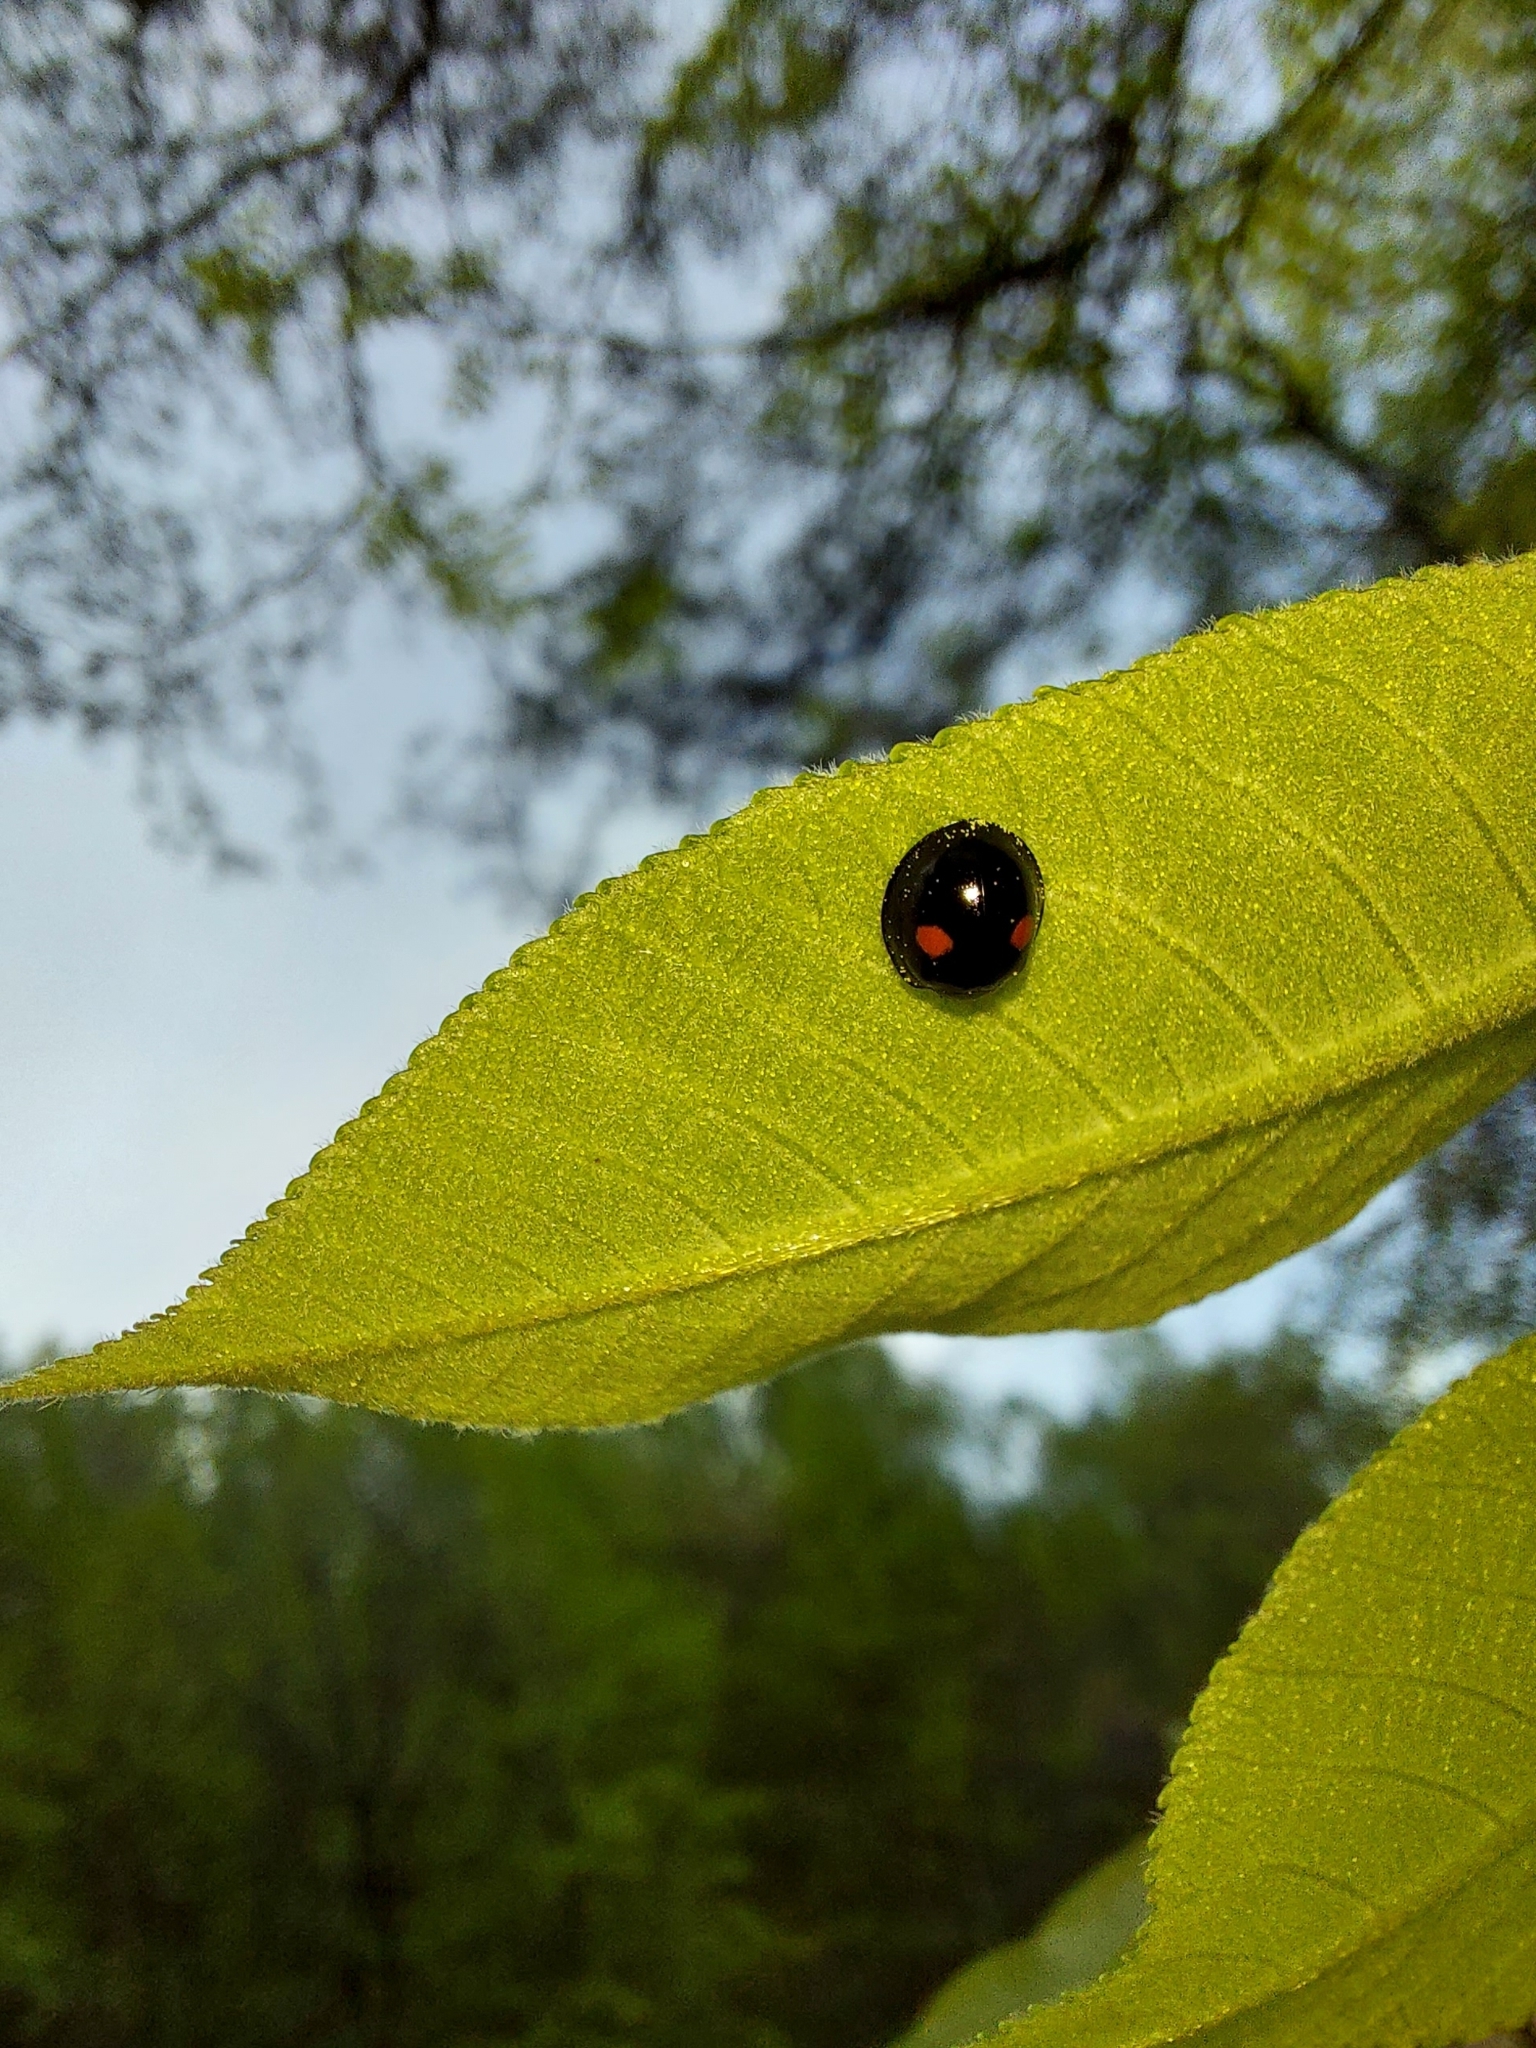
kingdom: Animalia
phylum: Arthropoda
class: Insecta
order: Coleoptera
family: Coccinellidae
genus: Chilocorus
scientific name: Chilocorus stigma
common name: Twicestabbed lady beetle
